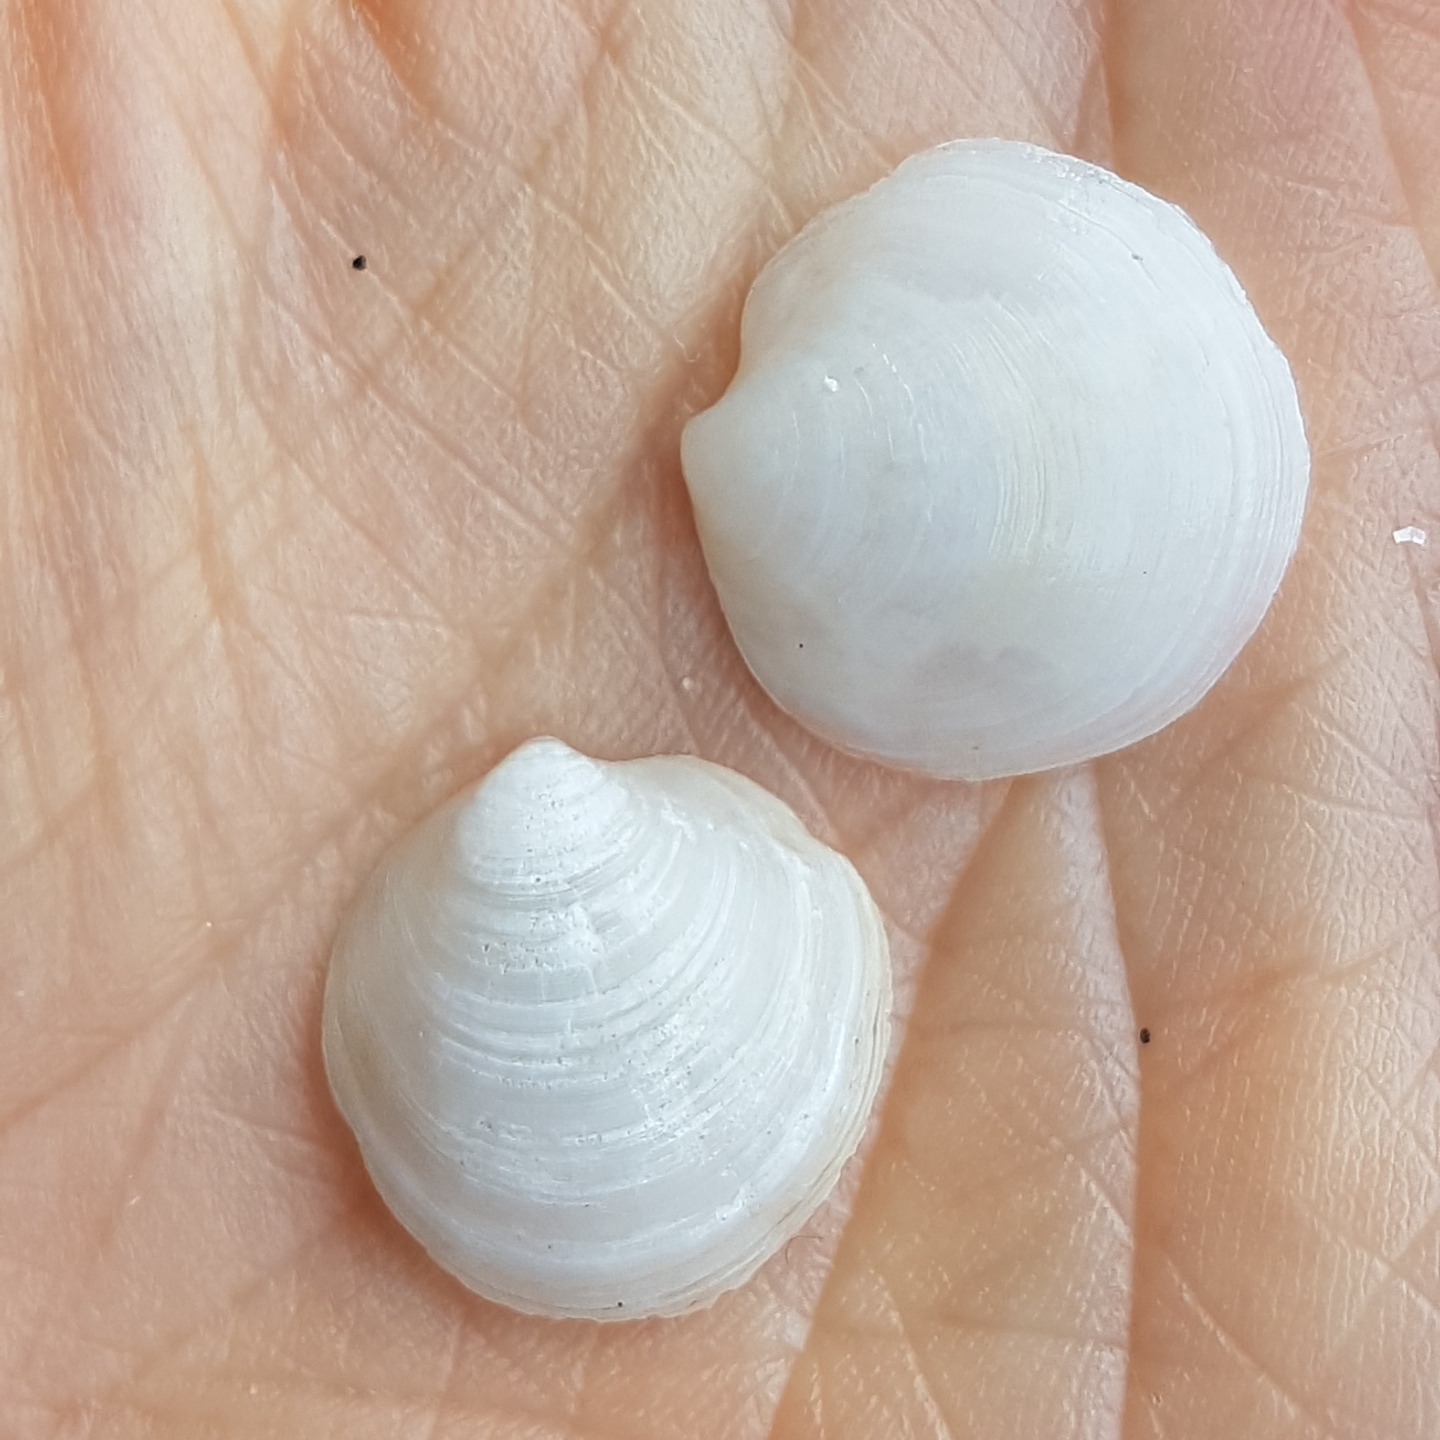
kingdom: Animalia
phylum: Mollusca
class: Bivalvia
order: Lucinida
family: Lucinidae
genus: Loripes
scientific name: Loripes orbiculatus
